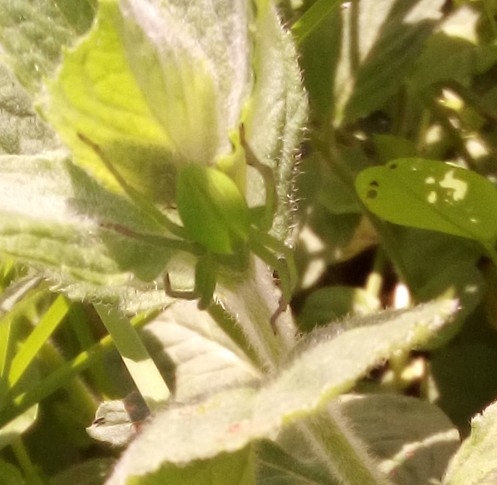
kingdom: Animalia
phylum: Arthropoda
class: Arachnida
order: Araneae
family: Sparassidae
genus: Micrommata
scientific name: Micrommata virescens
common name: Green spider
